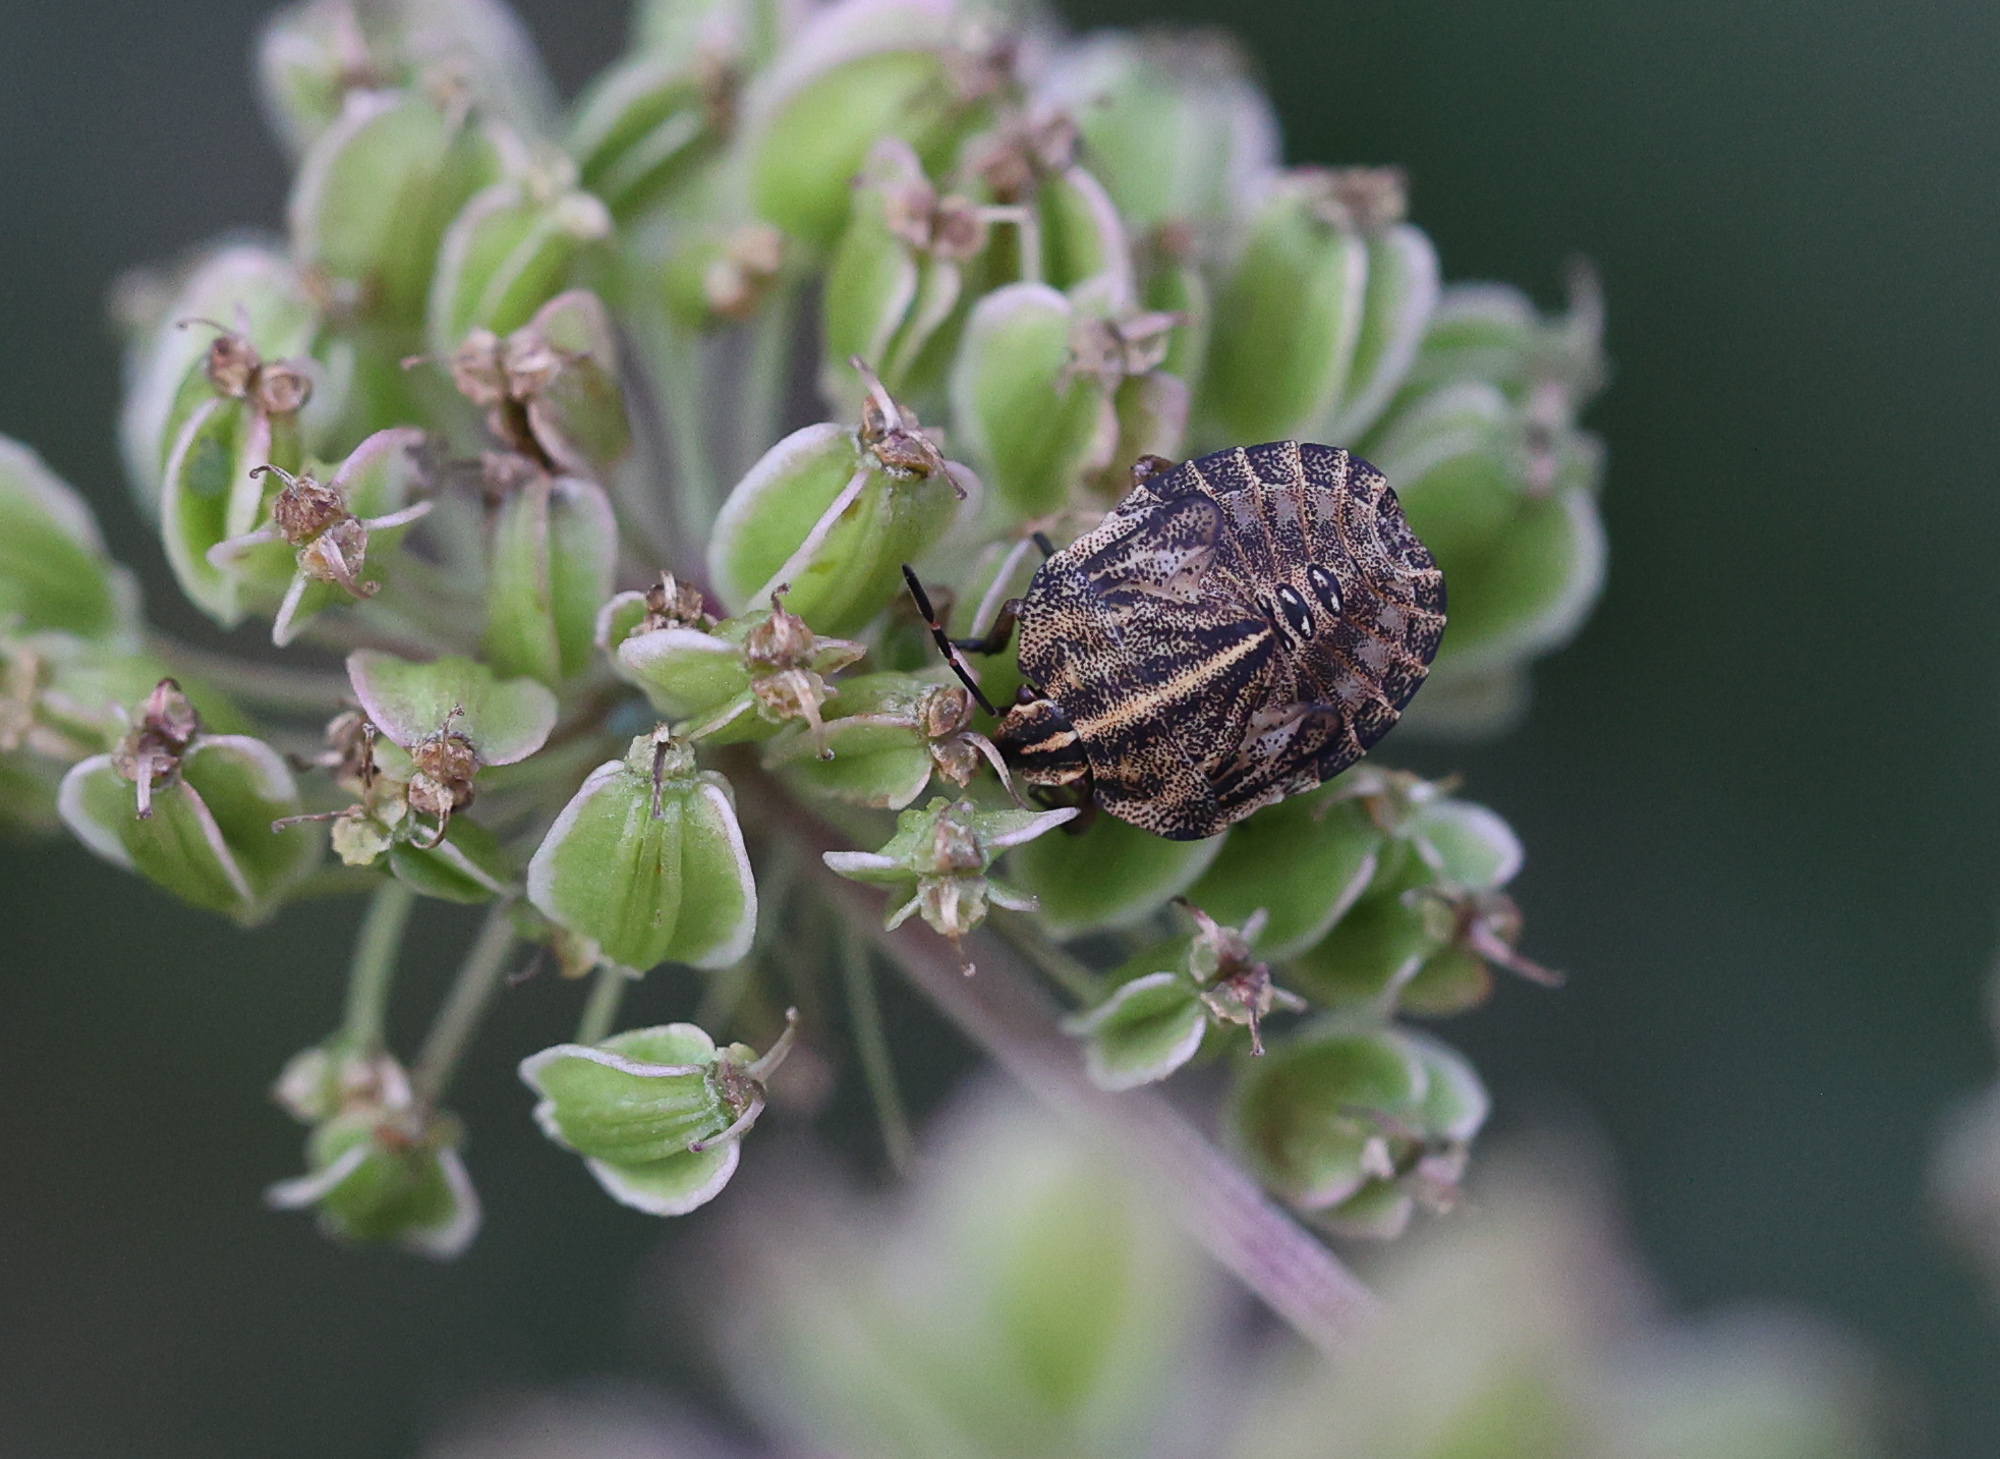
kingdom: Animalia
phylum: Arthropoda
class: Insecta
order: Hemiptera
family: Pentatomidae
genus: Graphosoma
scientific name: Graphosoma italicum
